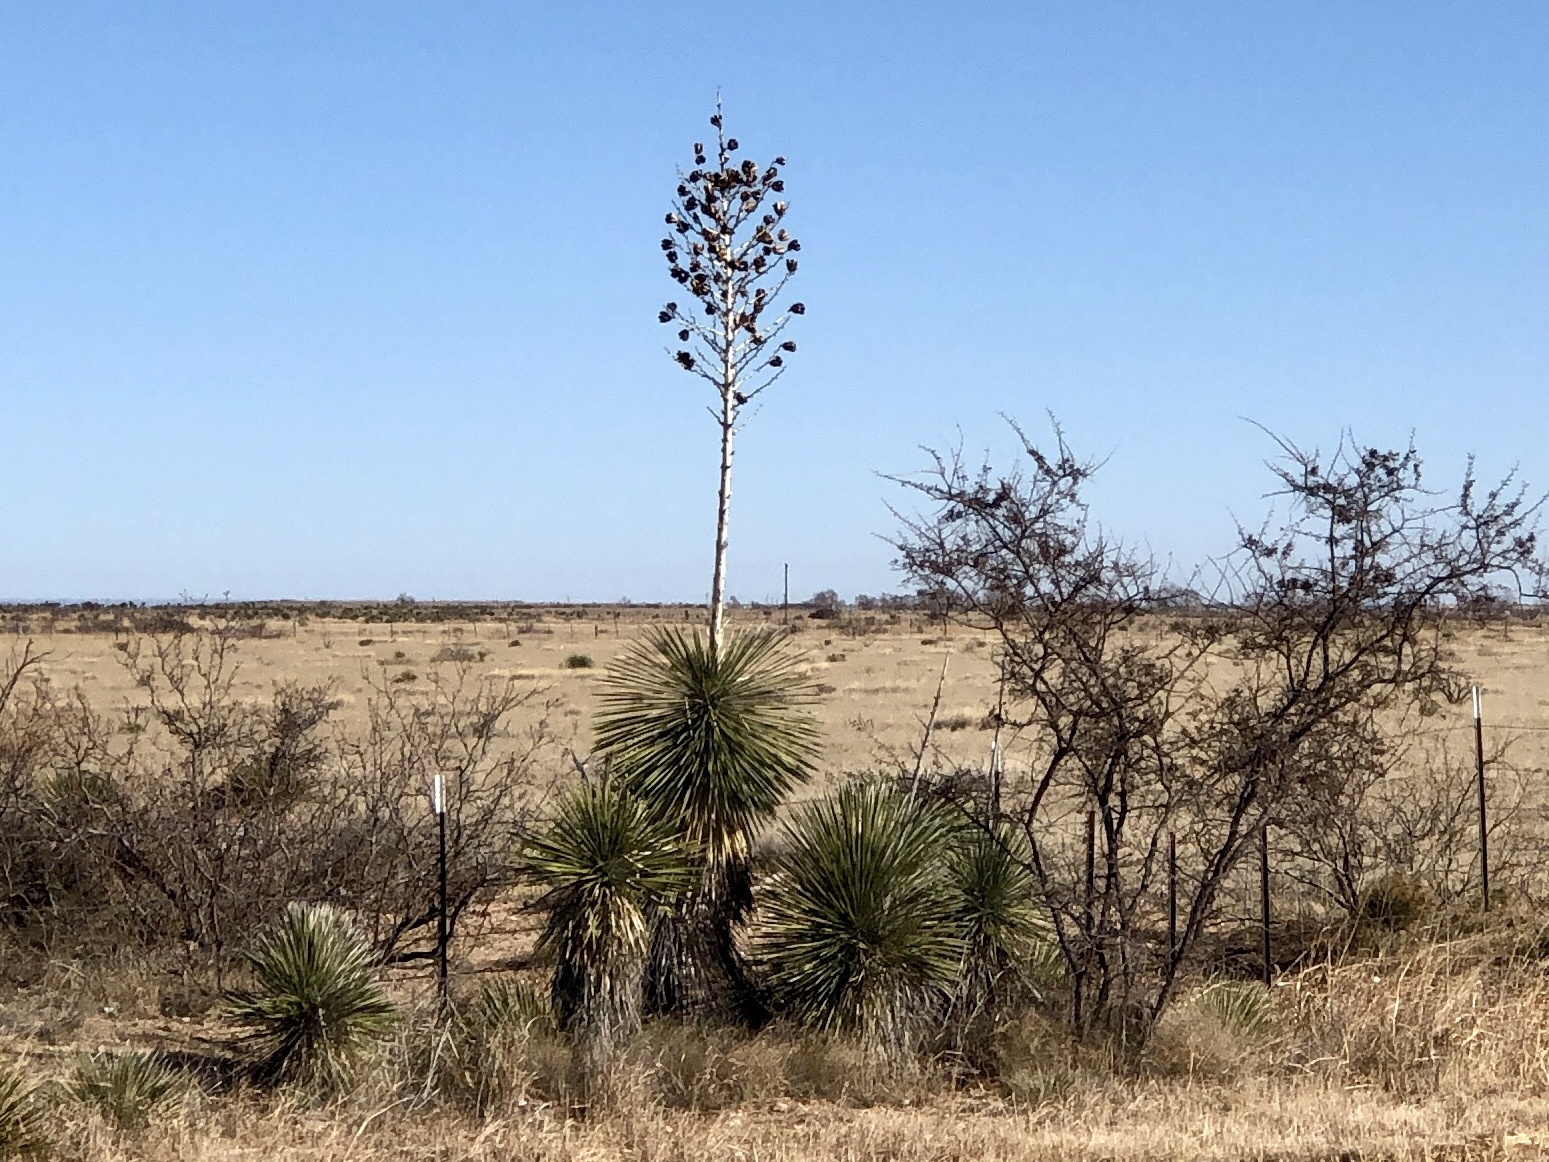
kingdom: Plantae
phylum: Tracheophyta
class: Liliopsida
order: Asparagales
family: Asparagaceae
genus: Yucca
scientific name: Yucca elata
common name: Palmella
